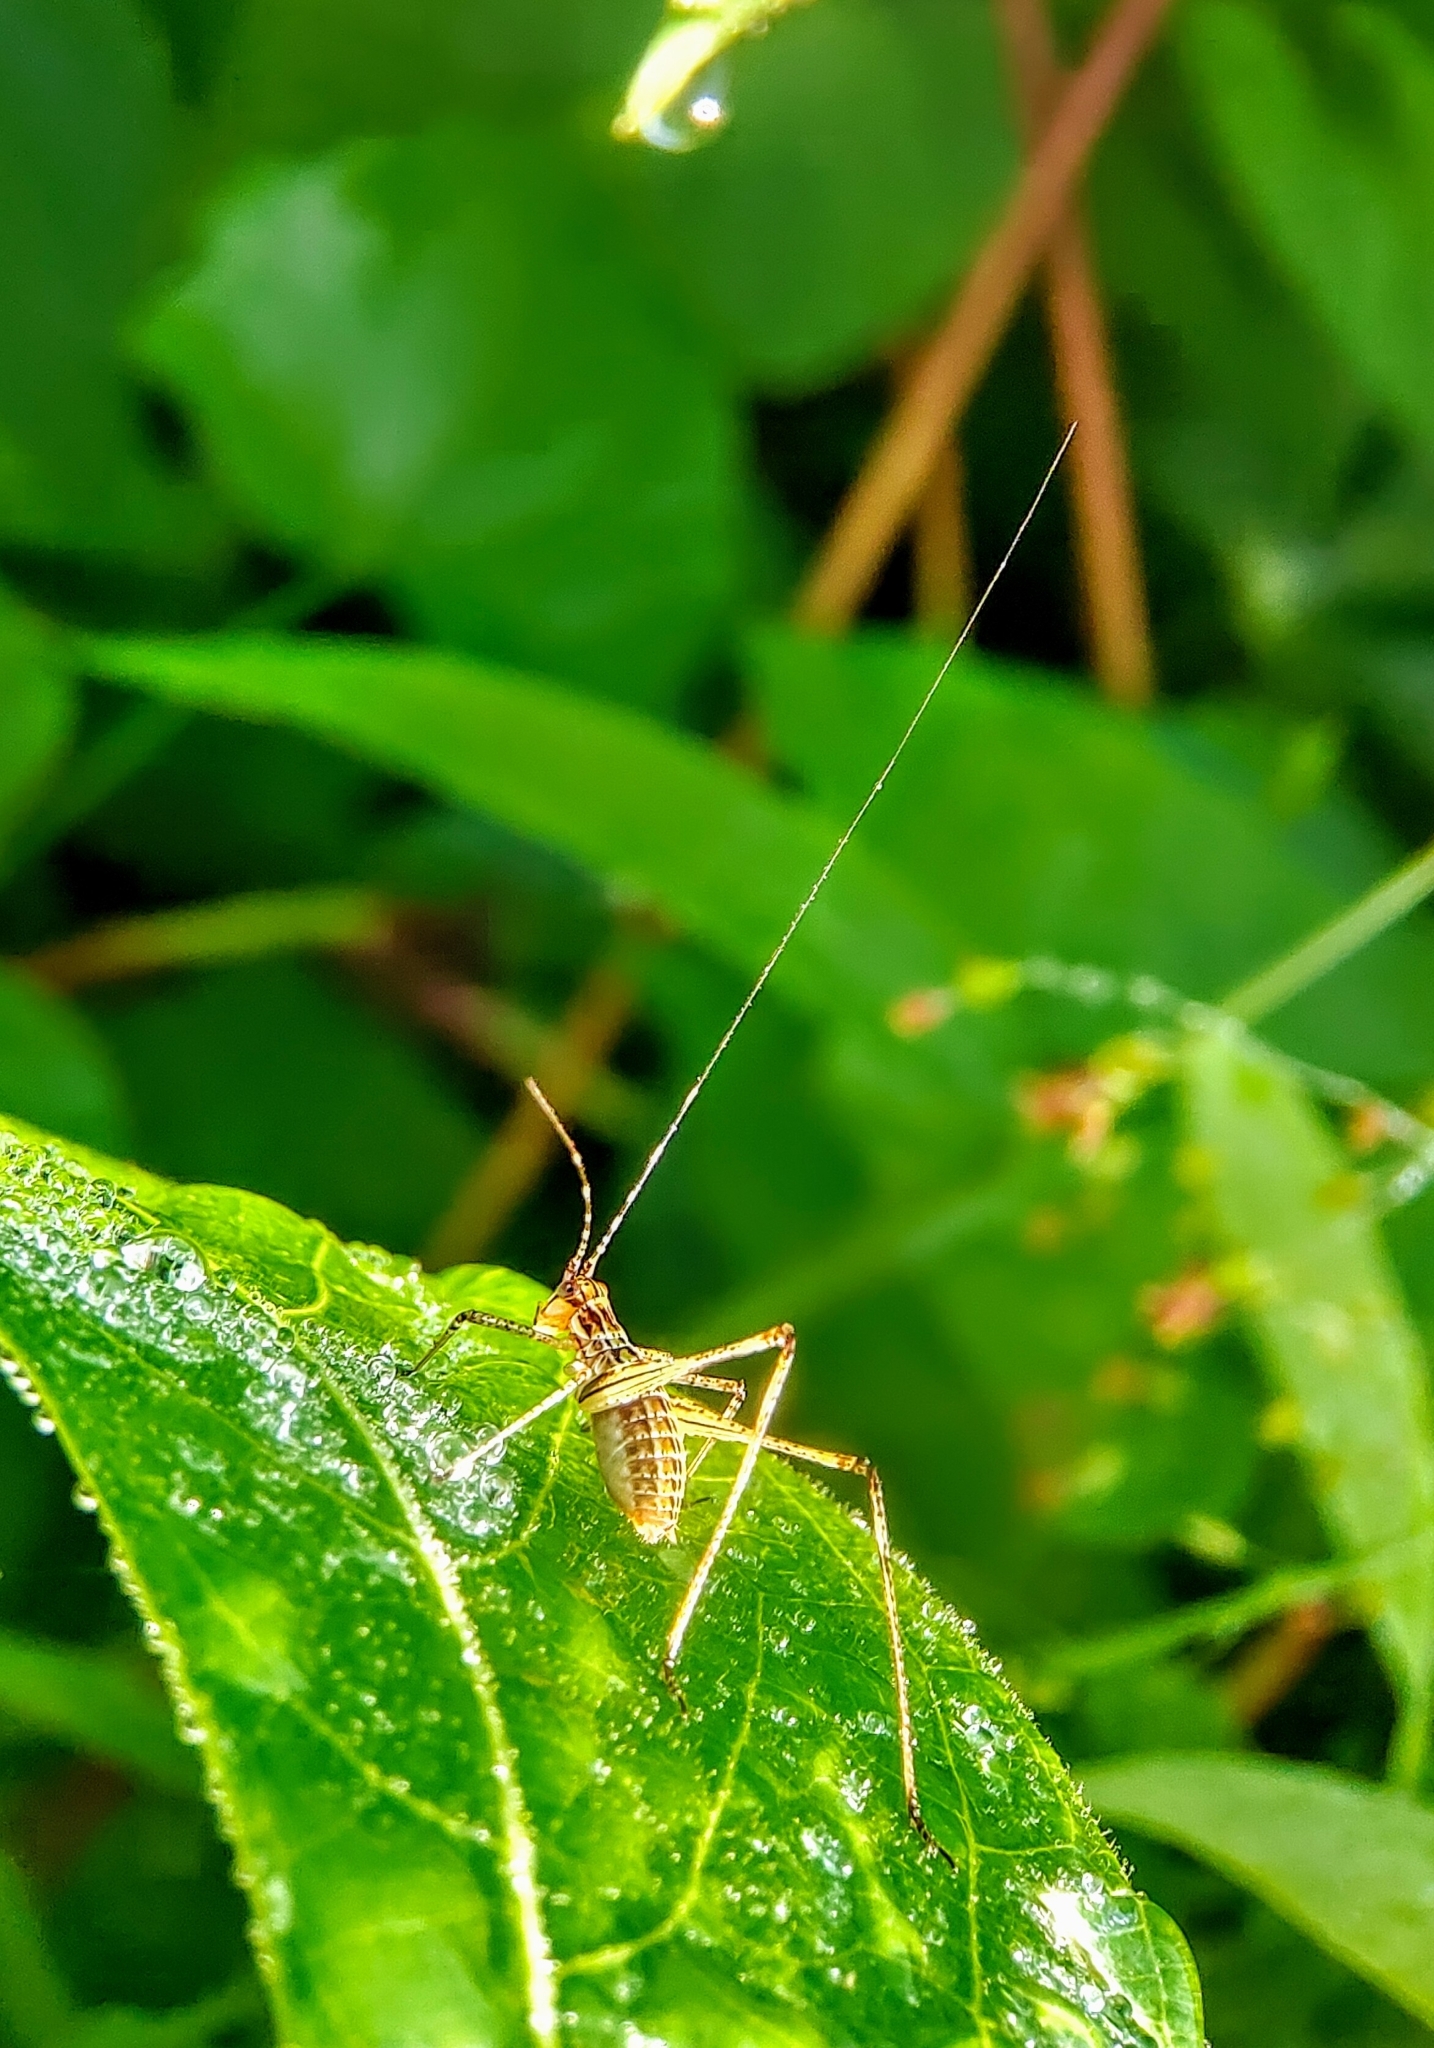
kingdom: Animalia
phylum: Arthropoda
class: Insecta
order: Orthoptera
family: Tettigoniidae
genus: Phaneroptera
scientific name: Phaneroptera brevis
